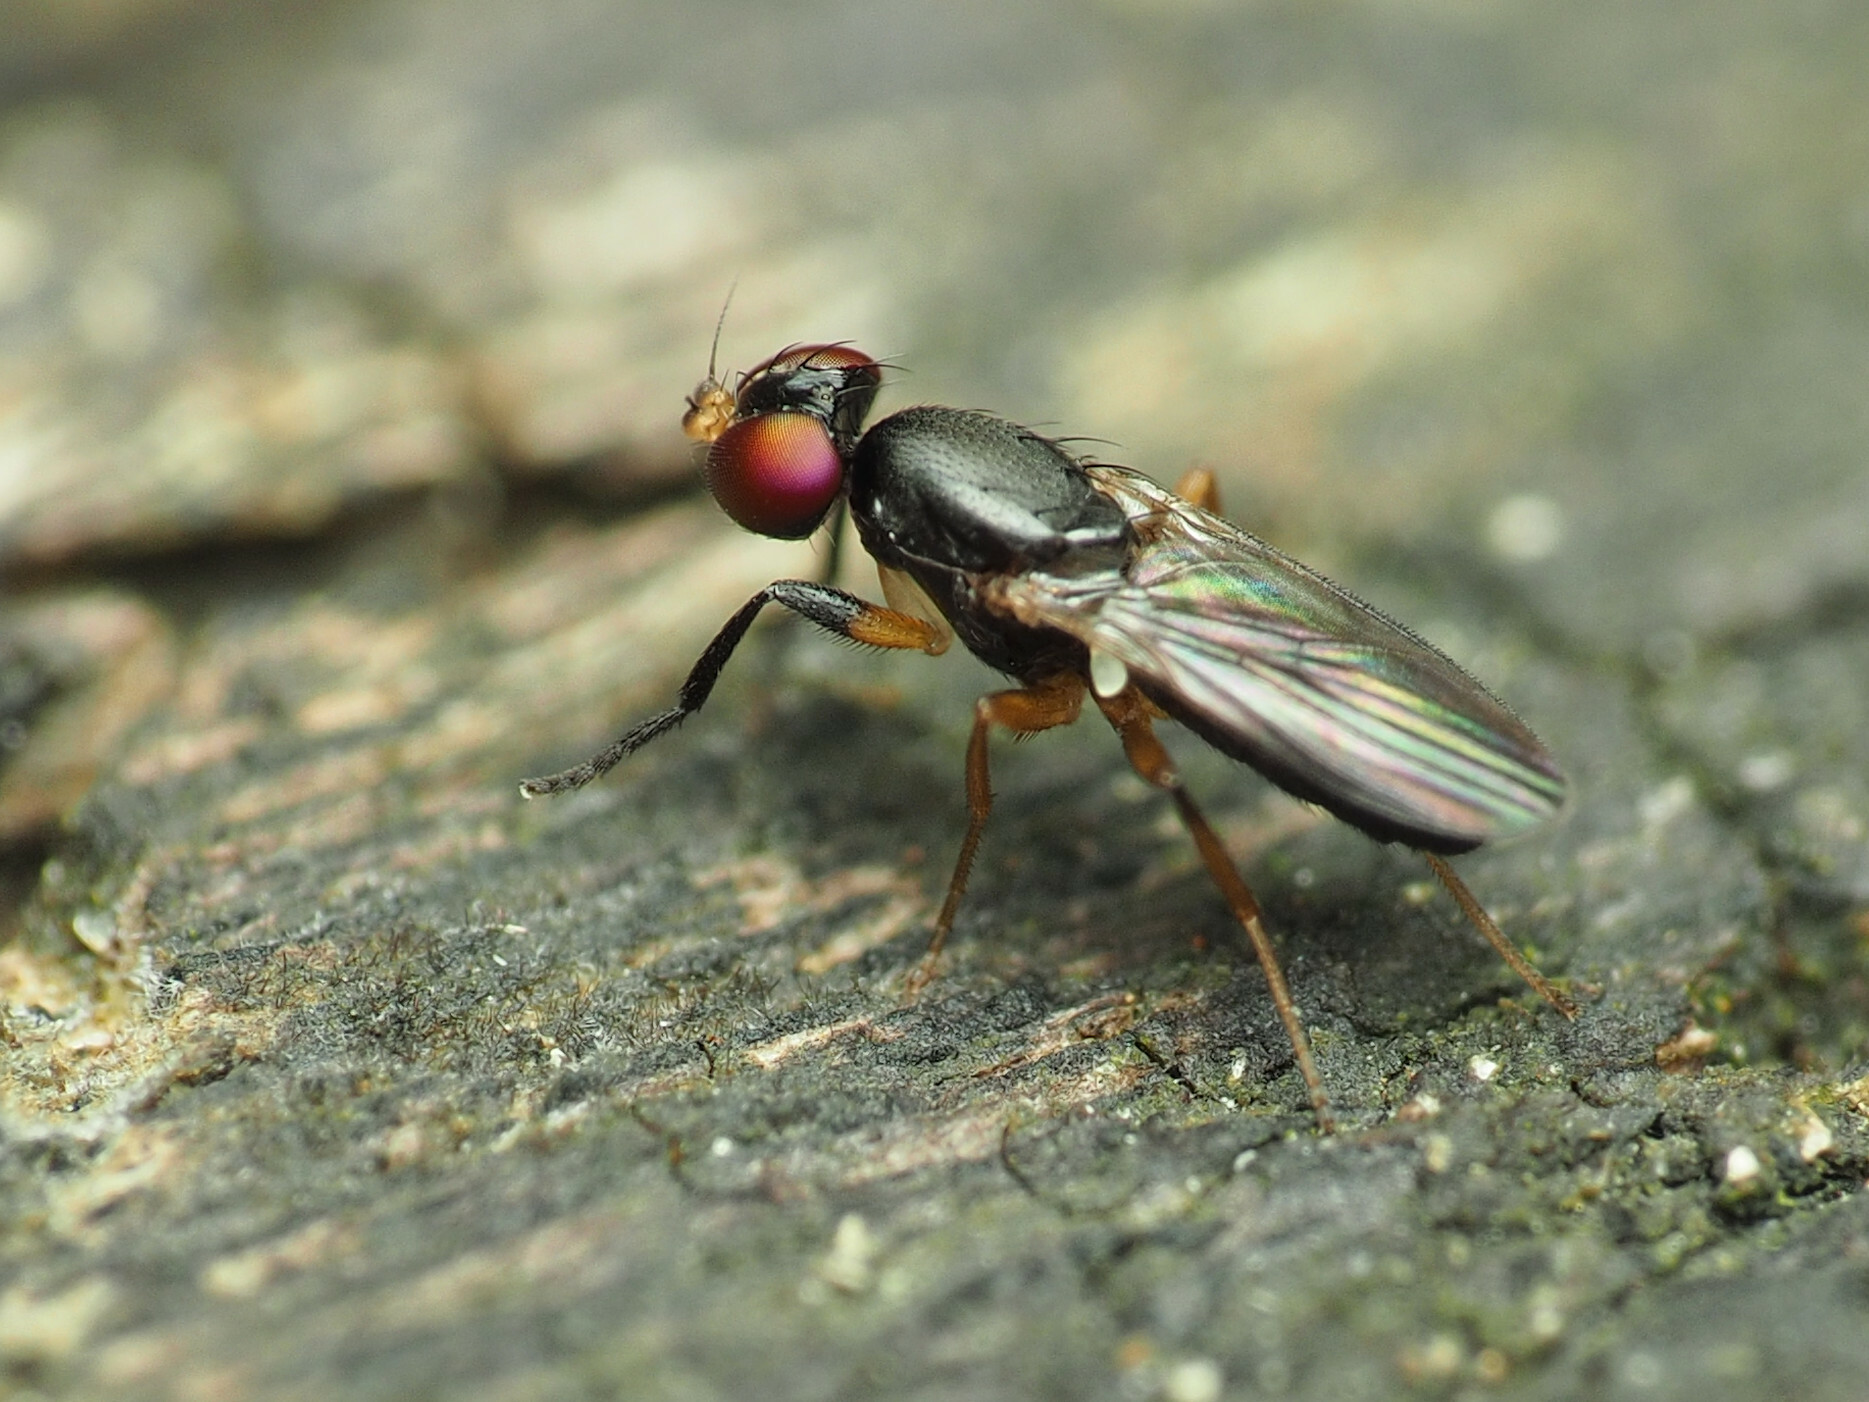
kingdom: Animalia
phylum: Arthropoda
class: Insecta
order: Diptera
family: Clusiidae
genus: Heteromeringia
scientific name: Heteromeringia nitida
